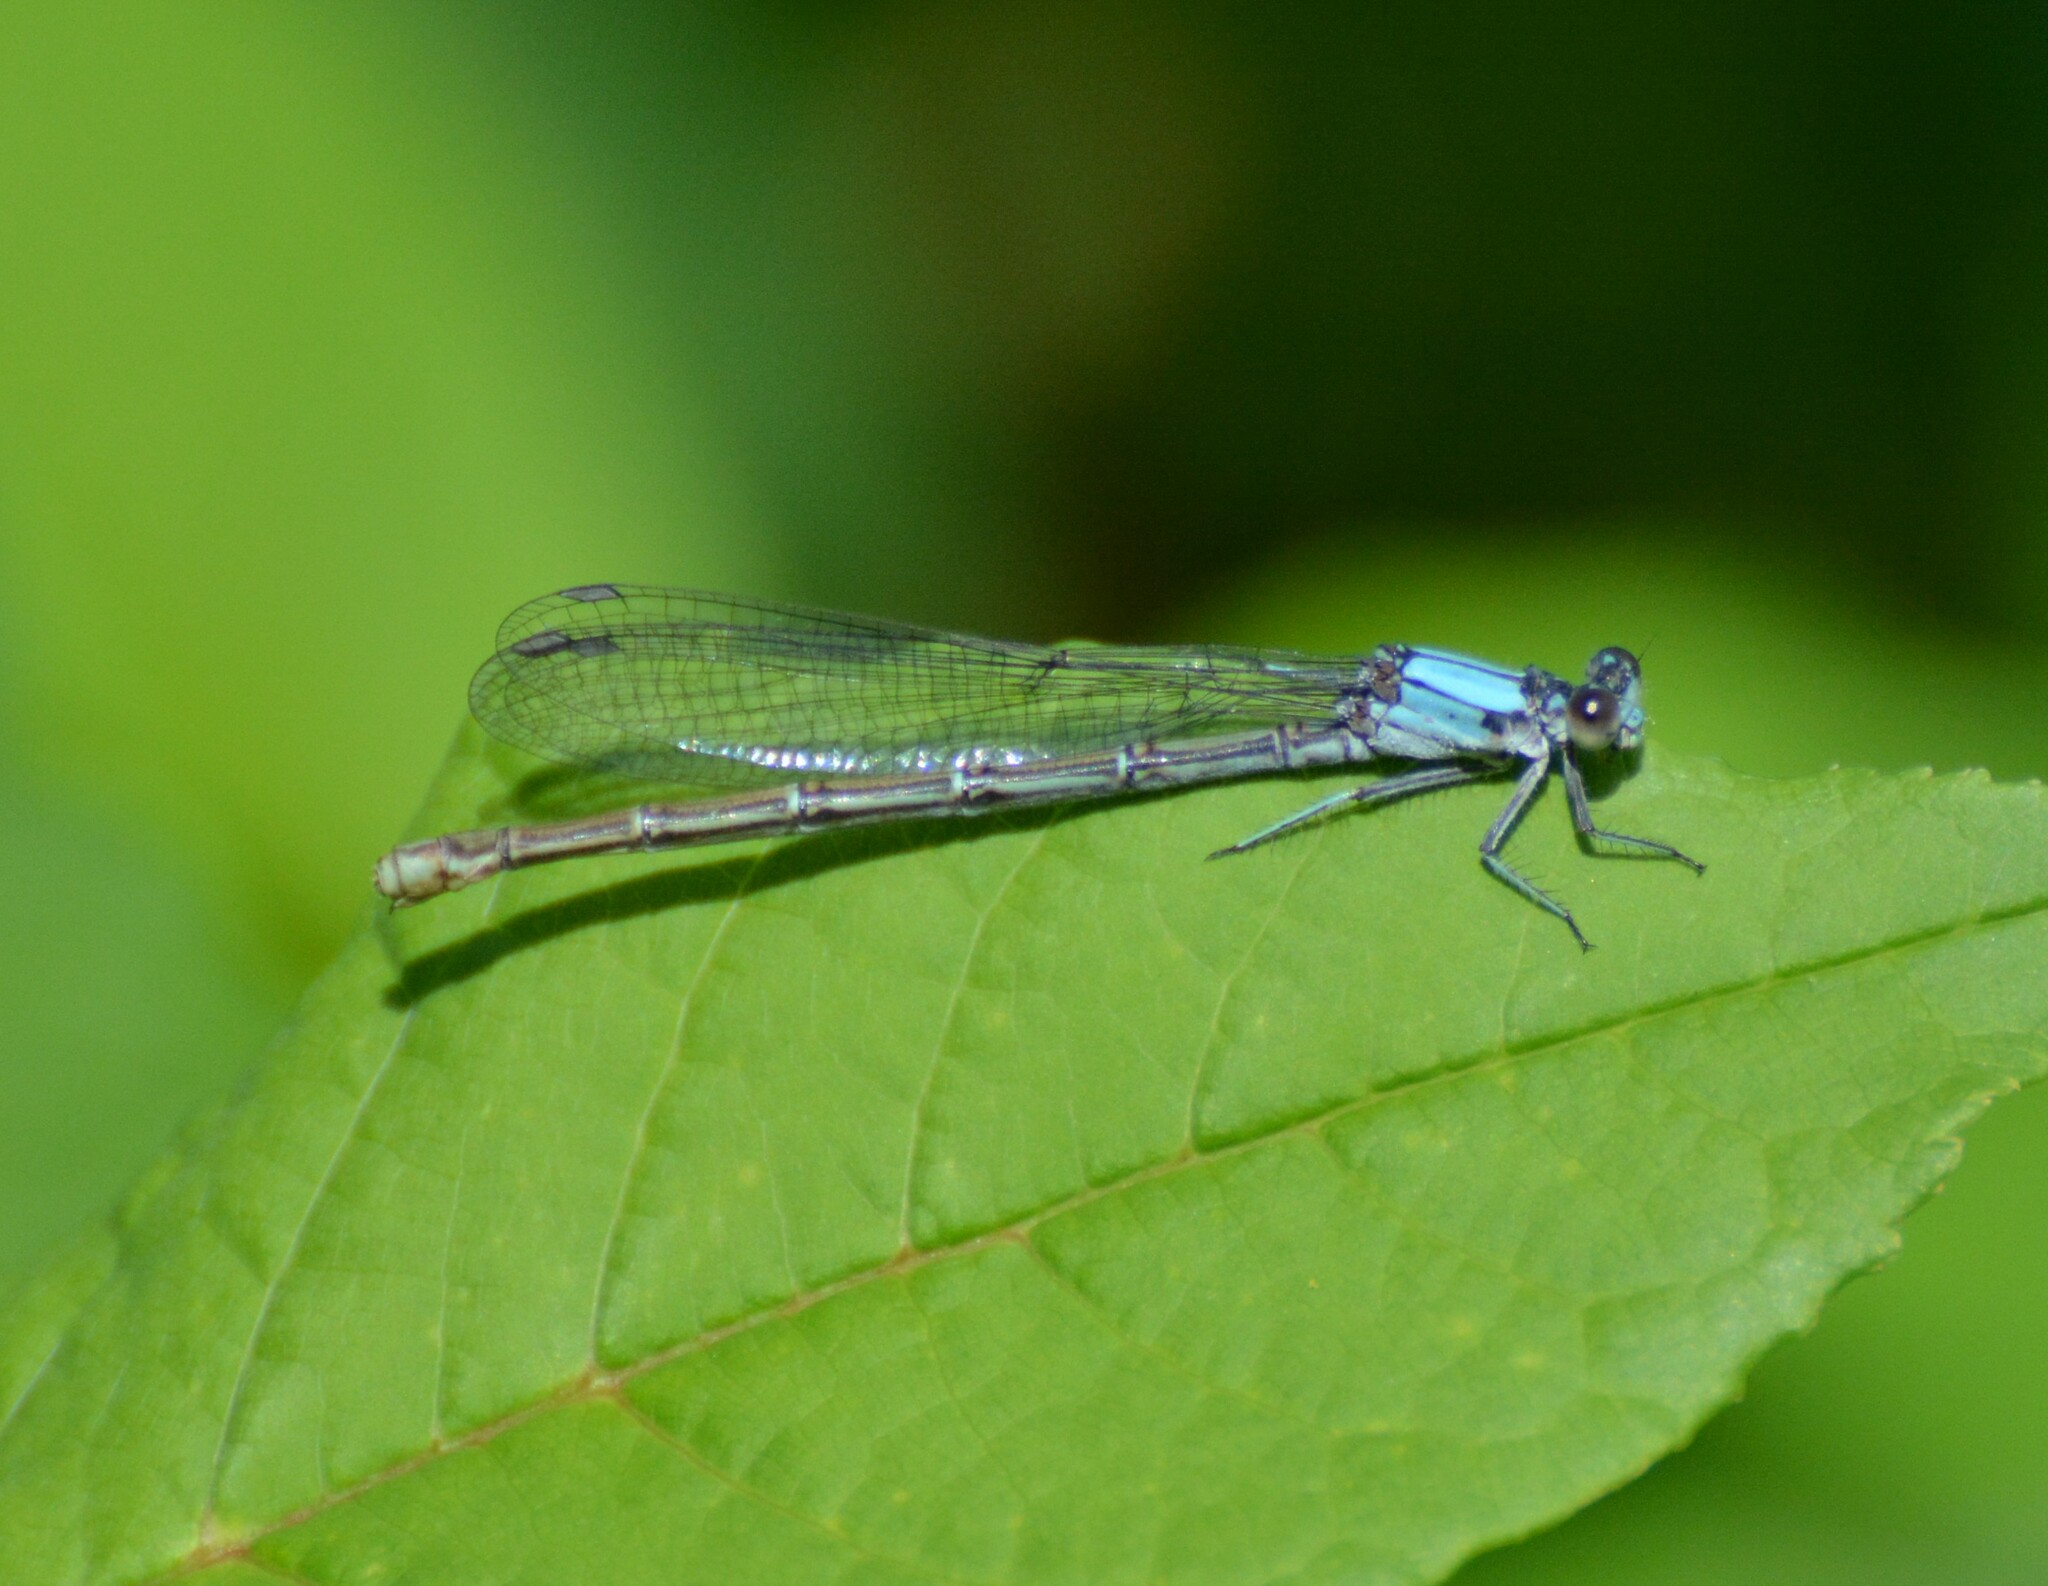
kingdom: Animalia
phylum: Arthropoda
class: Insecta
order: Odonata
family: Coenagrionidae
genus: Argia
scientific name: Argia moesta
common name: Powdered dancer
